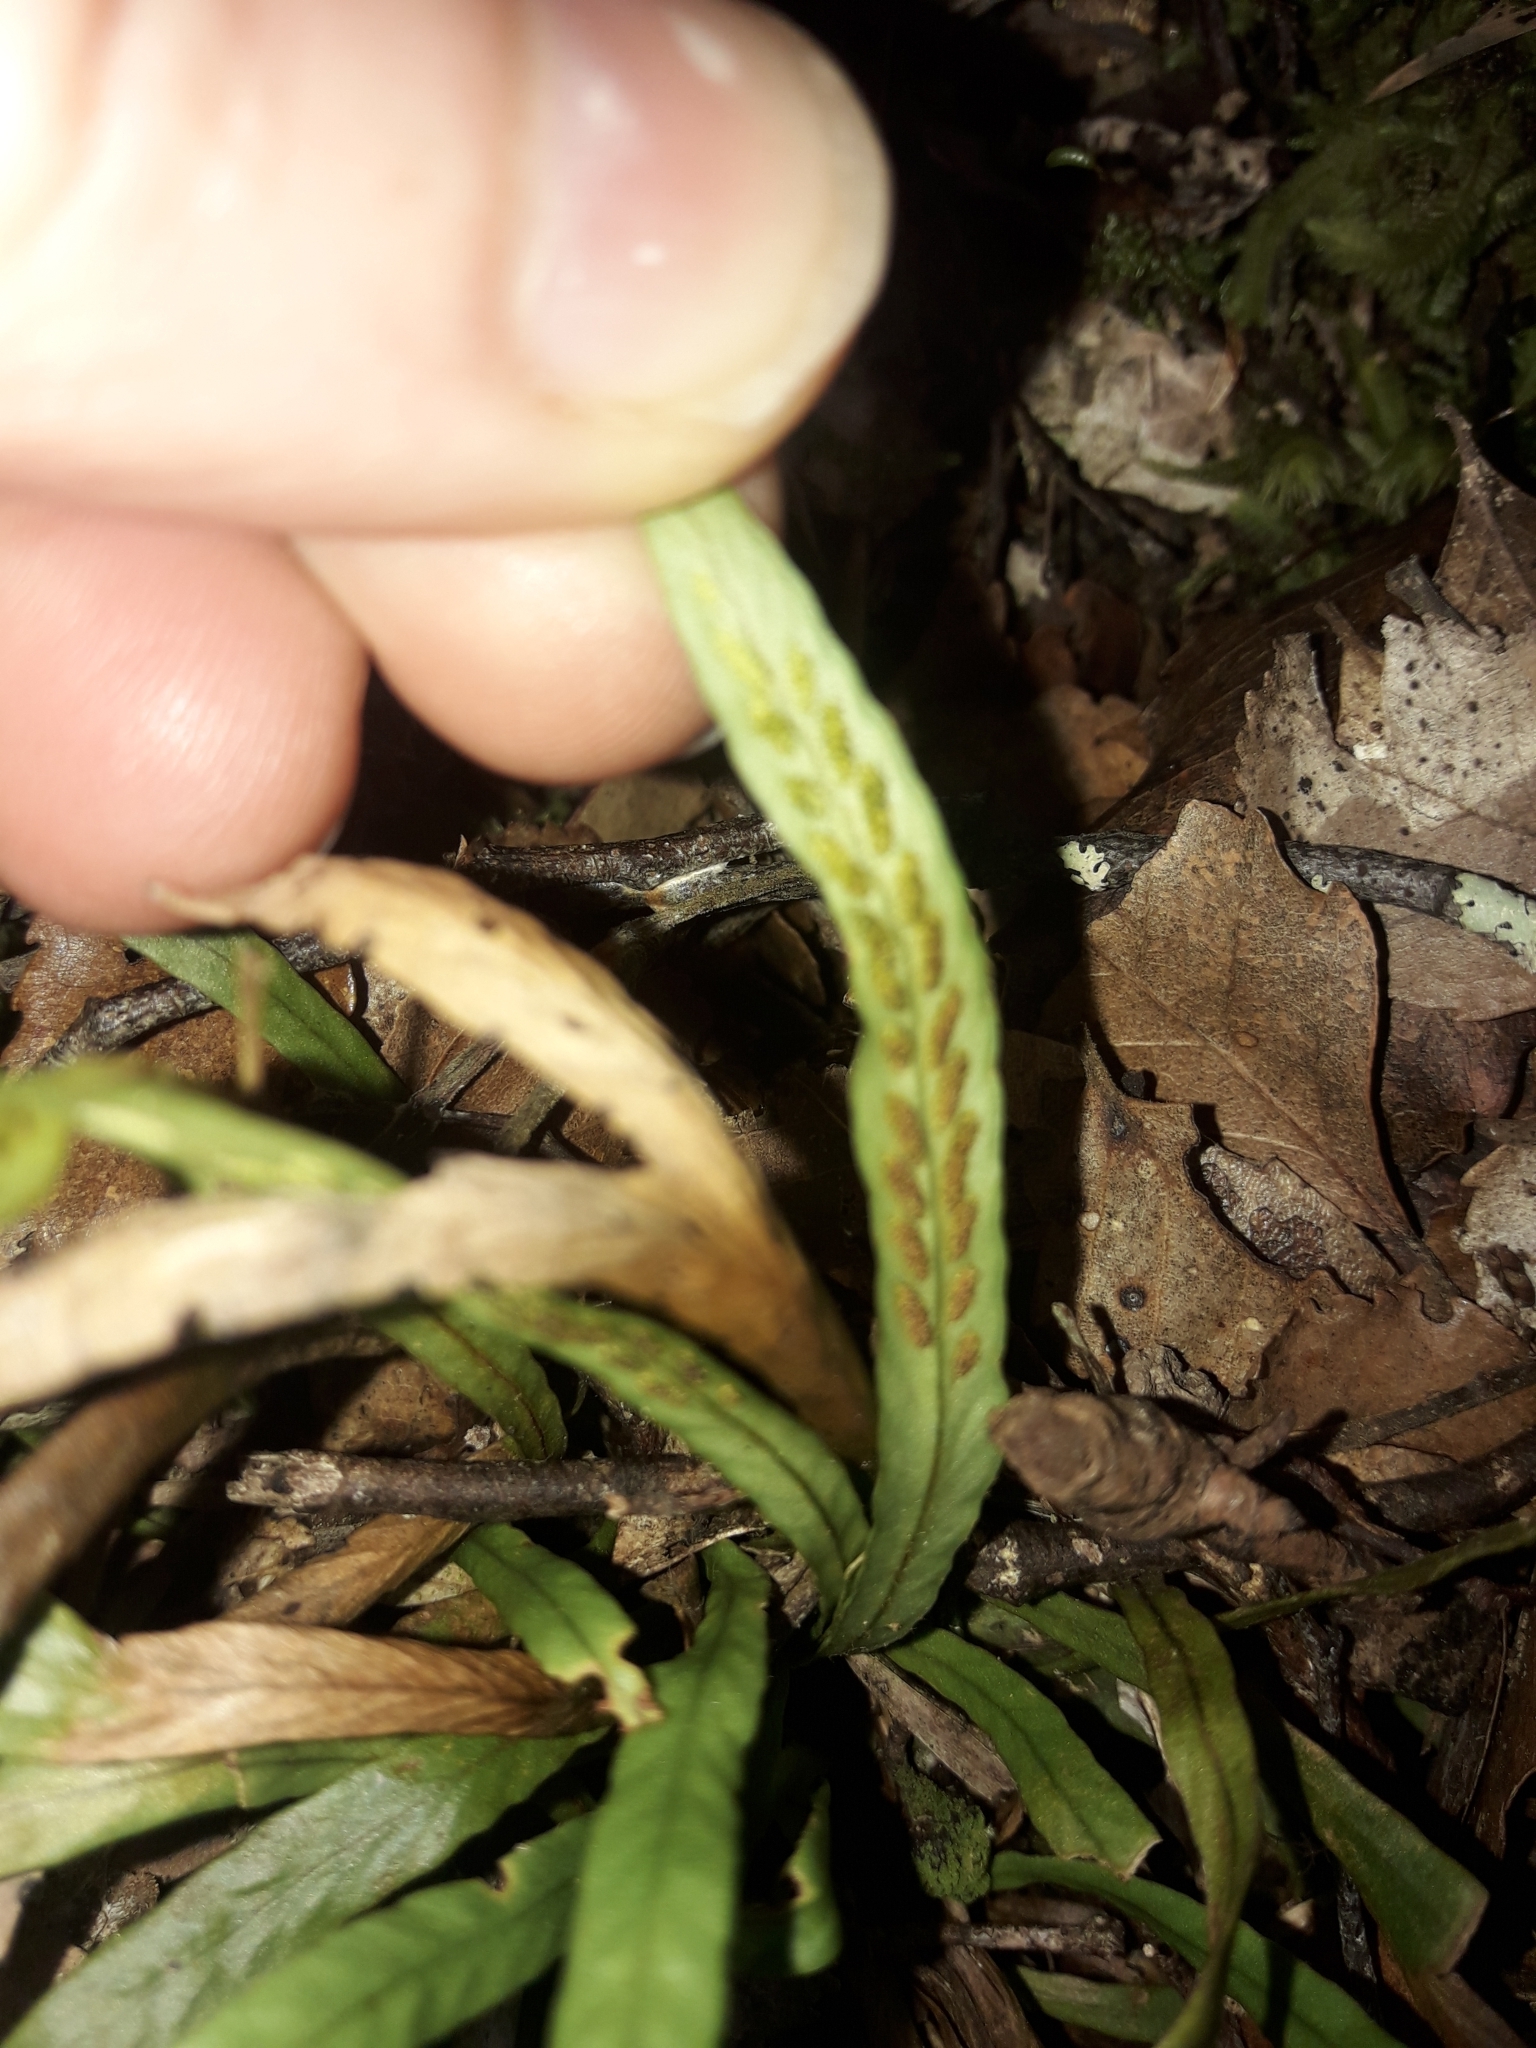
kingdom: Plantae
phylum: Tracheophyta
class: Polypodiopsida
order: Polypodiales
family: Polypodiaceae
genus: Notogrammitis
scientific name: Notogrammitis billardierei
